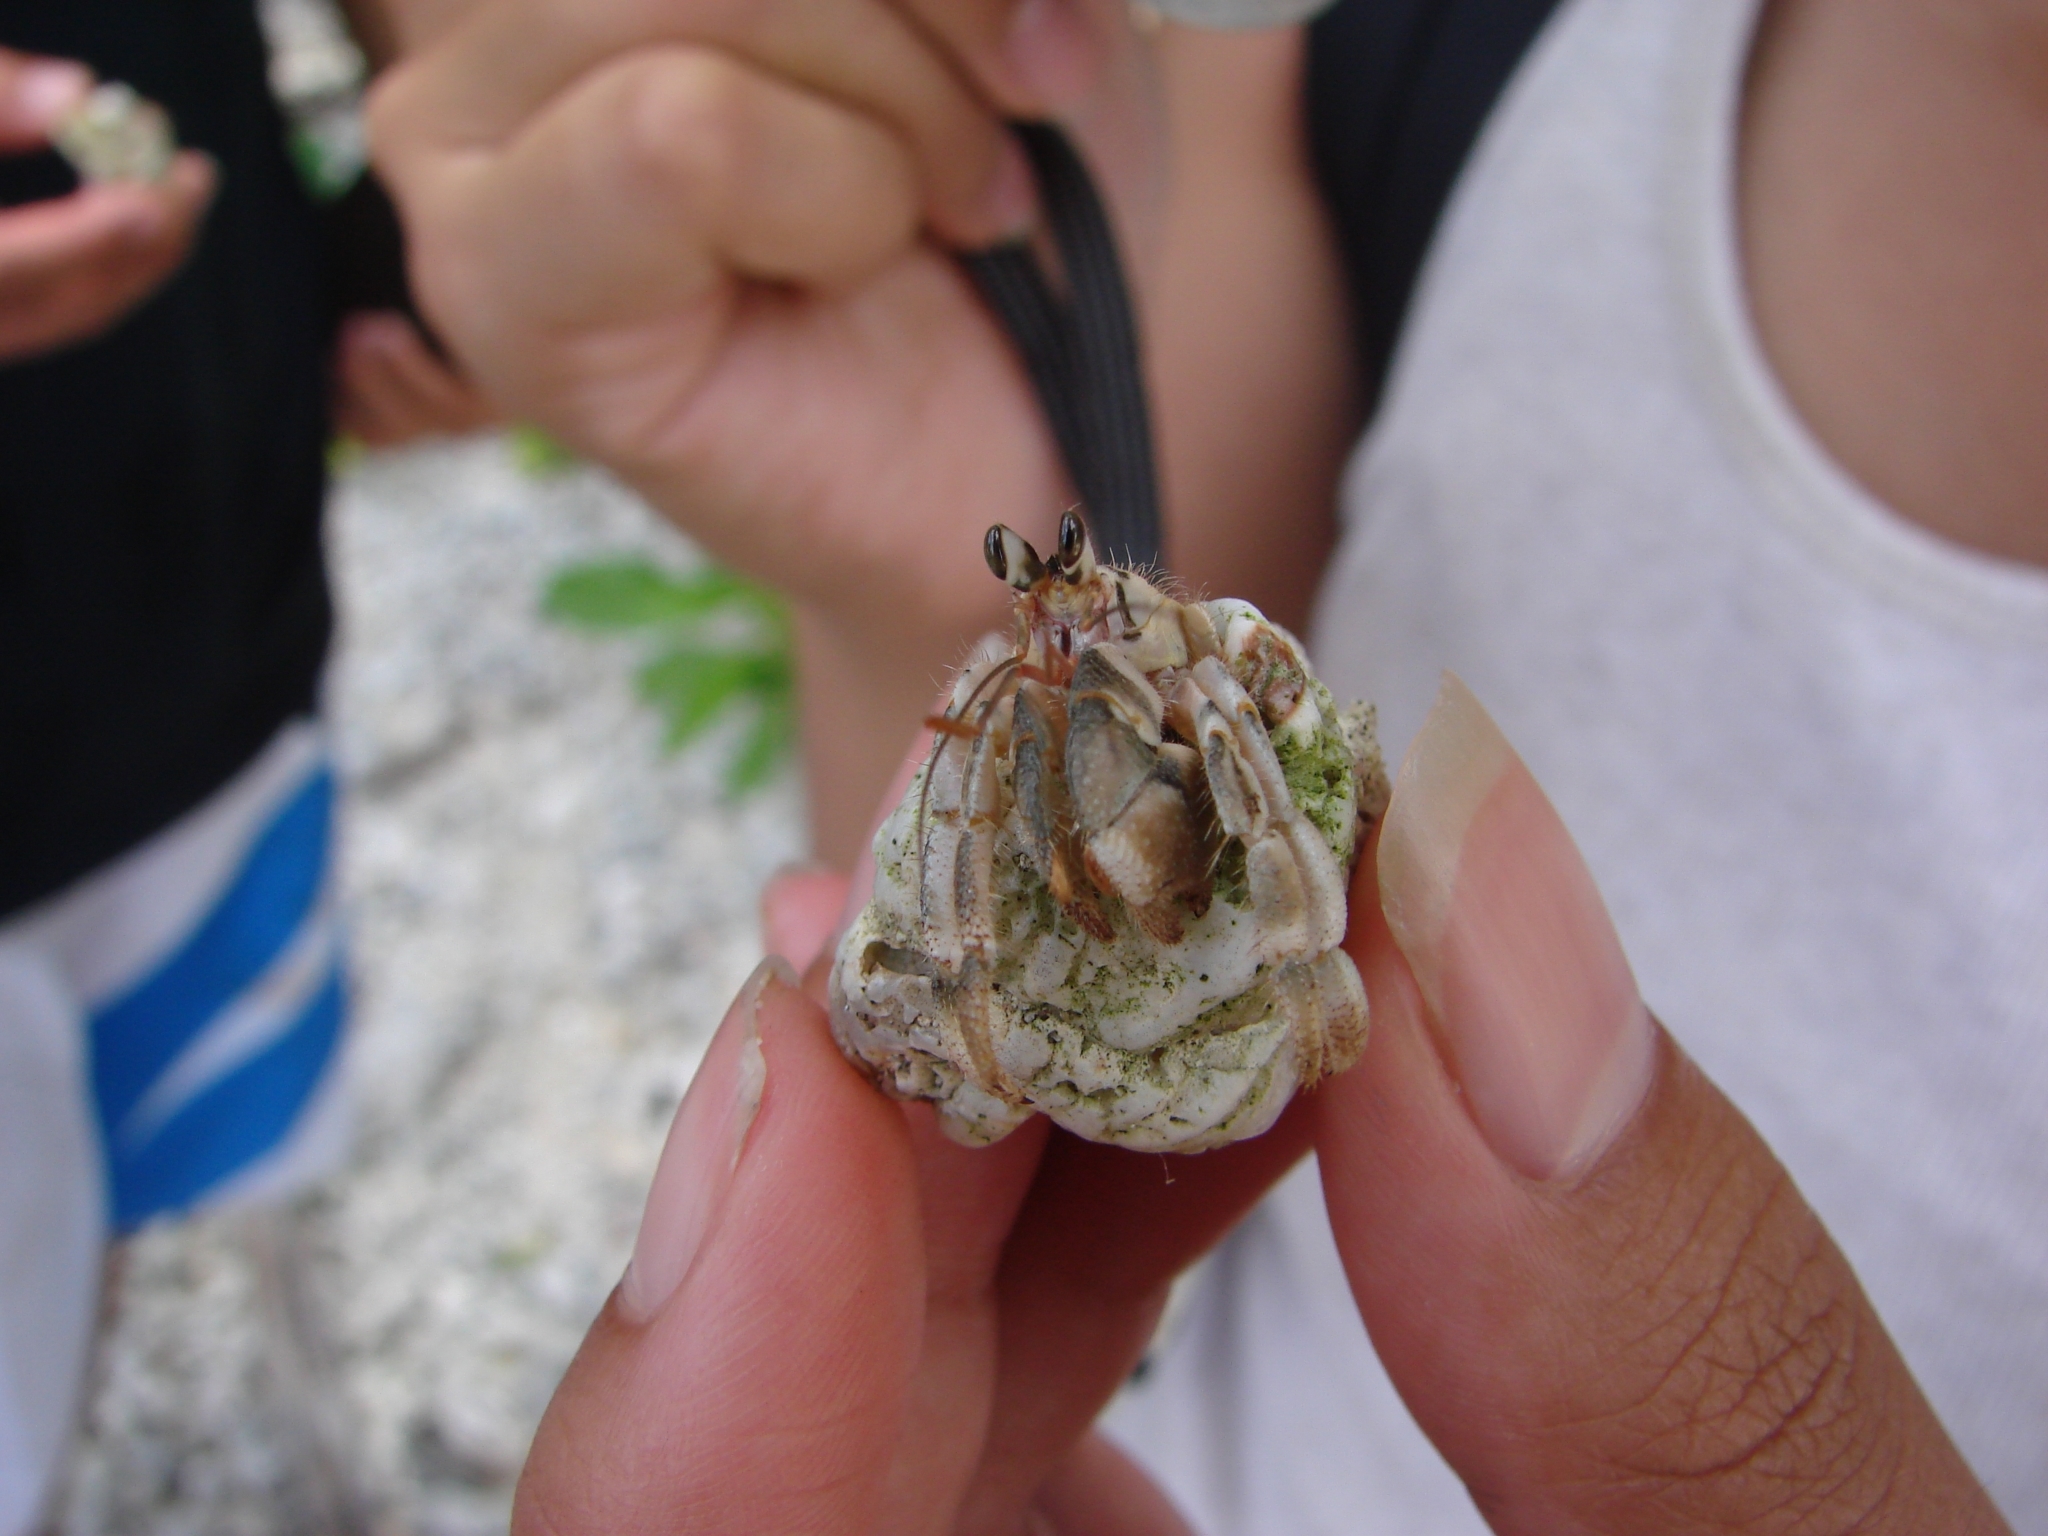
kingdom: Animalia
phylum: Arthropoda
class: Malacostraca
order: Decapoda
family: Coenobitidae
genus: Coenobita
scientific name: Coenobita rugosus
